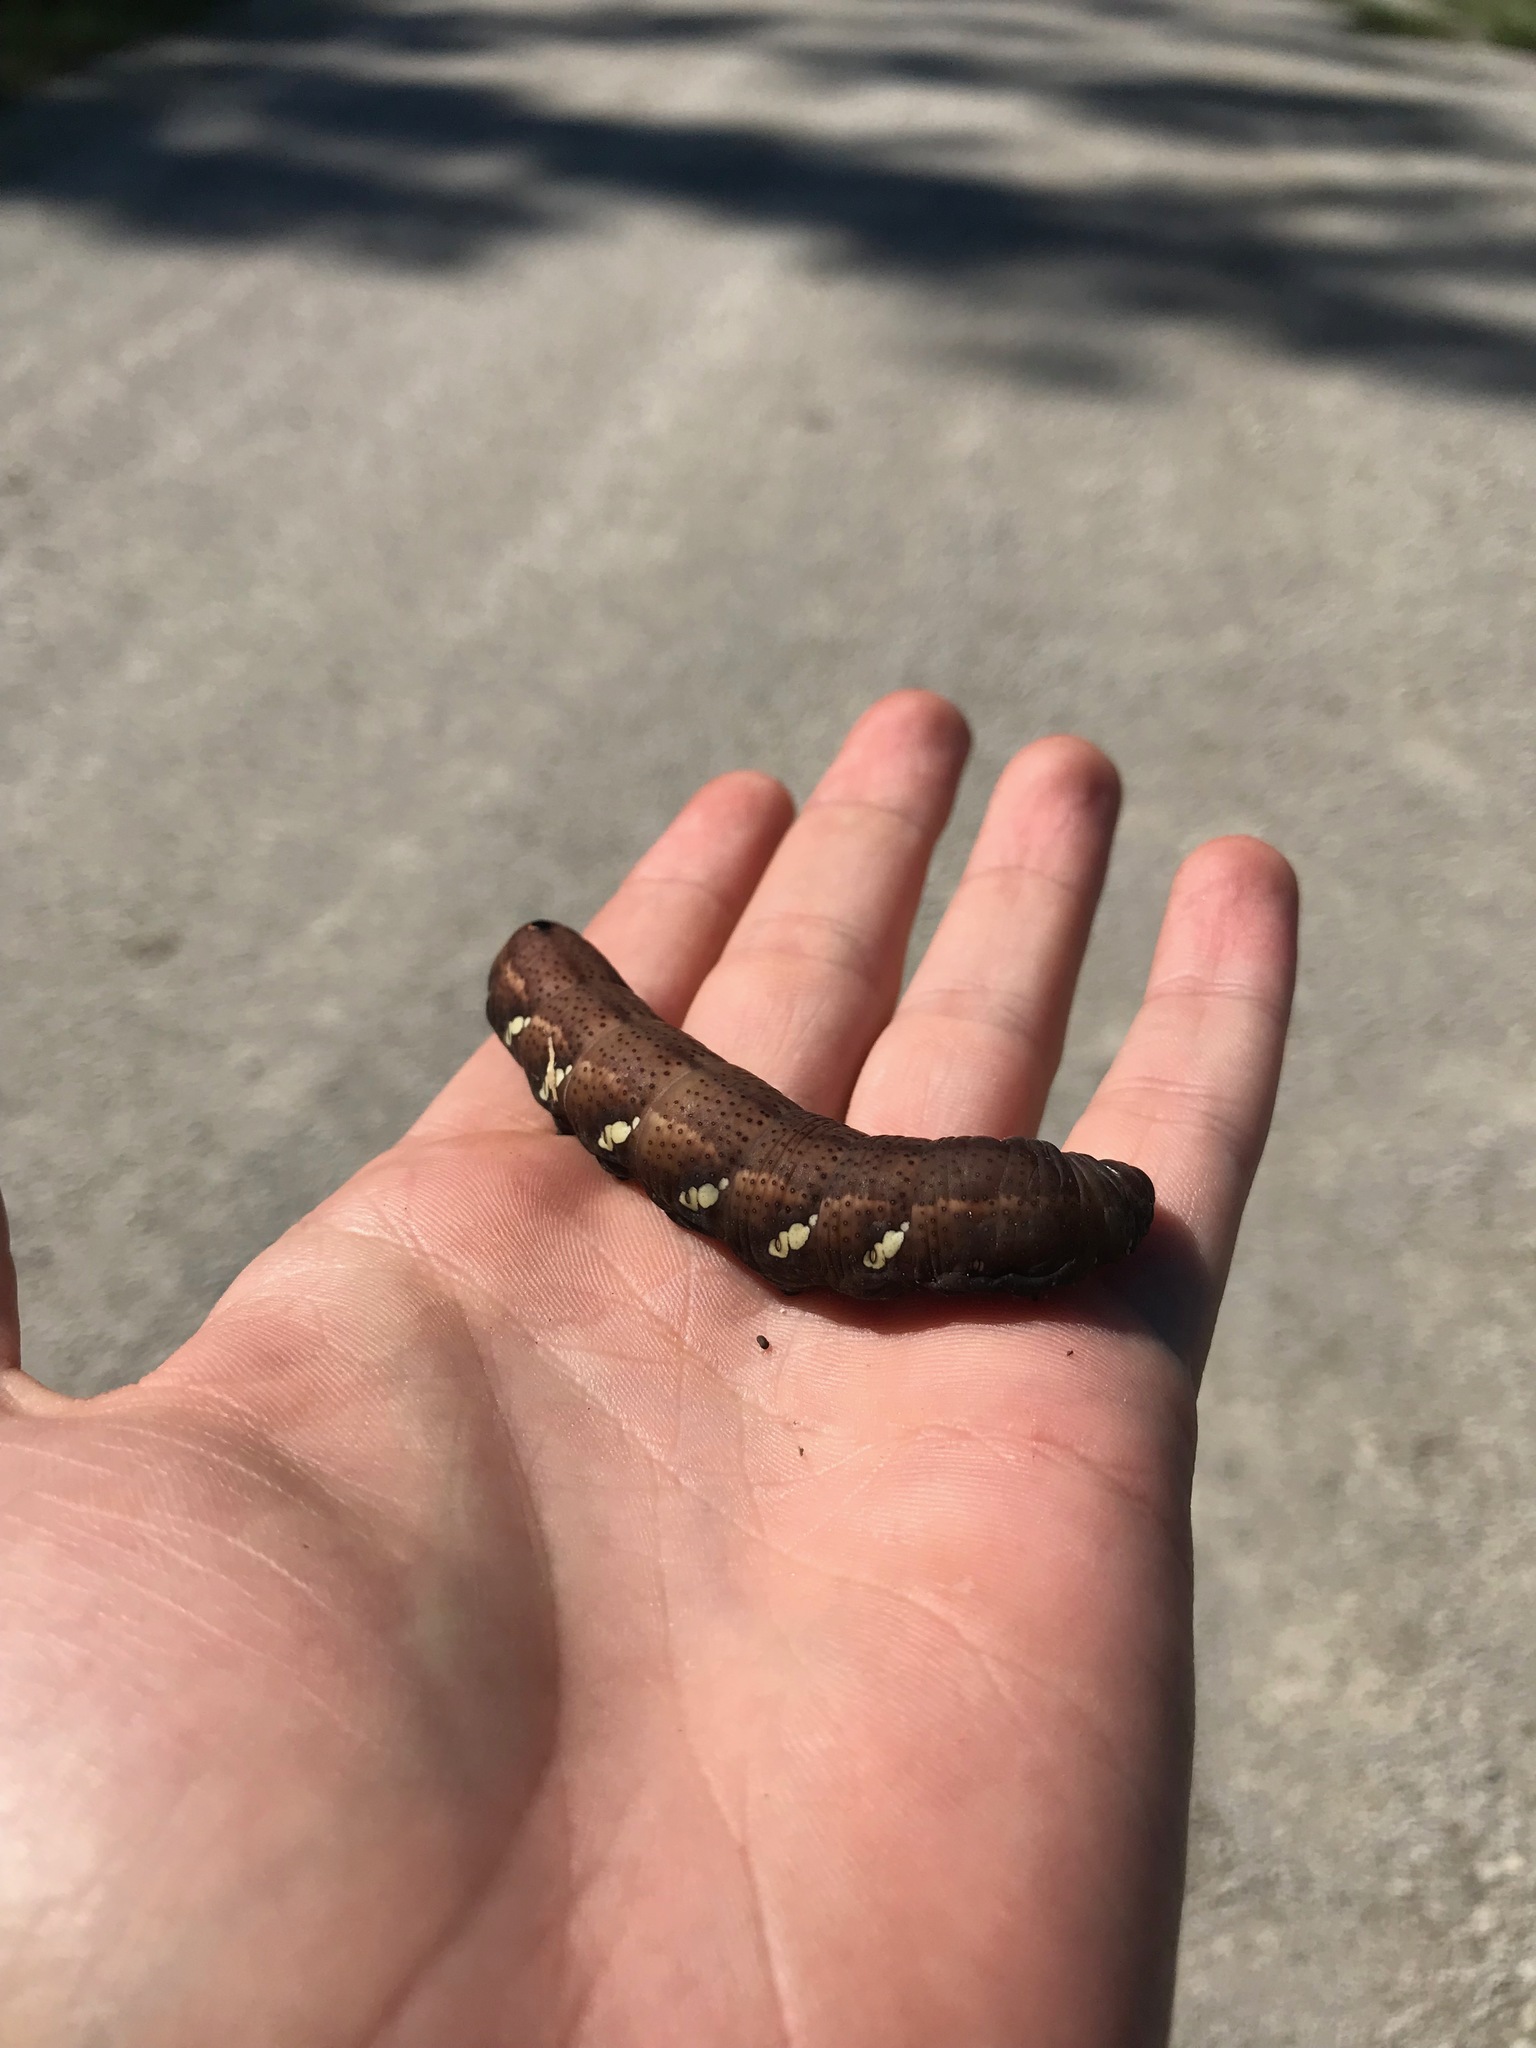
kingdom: Animalia
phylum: Arthropoda
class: Insecta
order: Lepidoptera
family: Sphingidae
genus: Eumorpha
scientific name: Eumorpha pandorus
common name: Pandora sphinx
